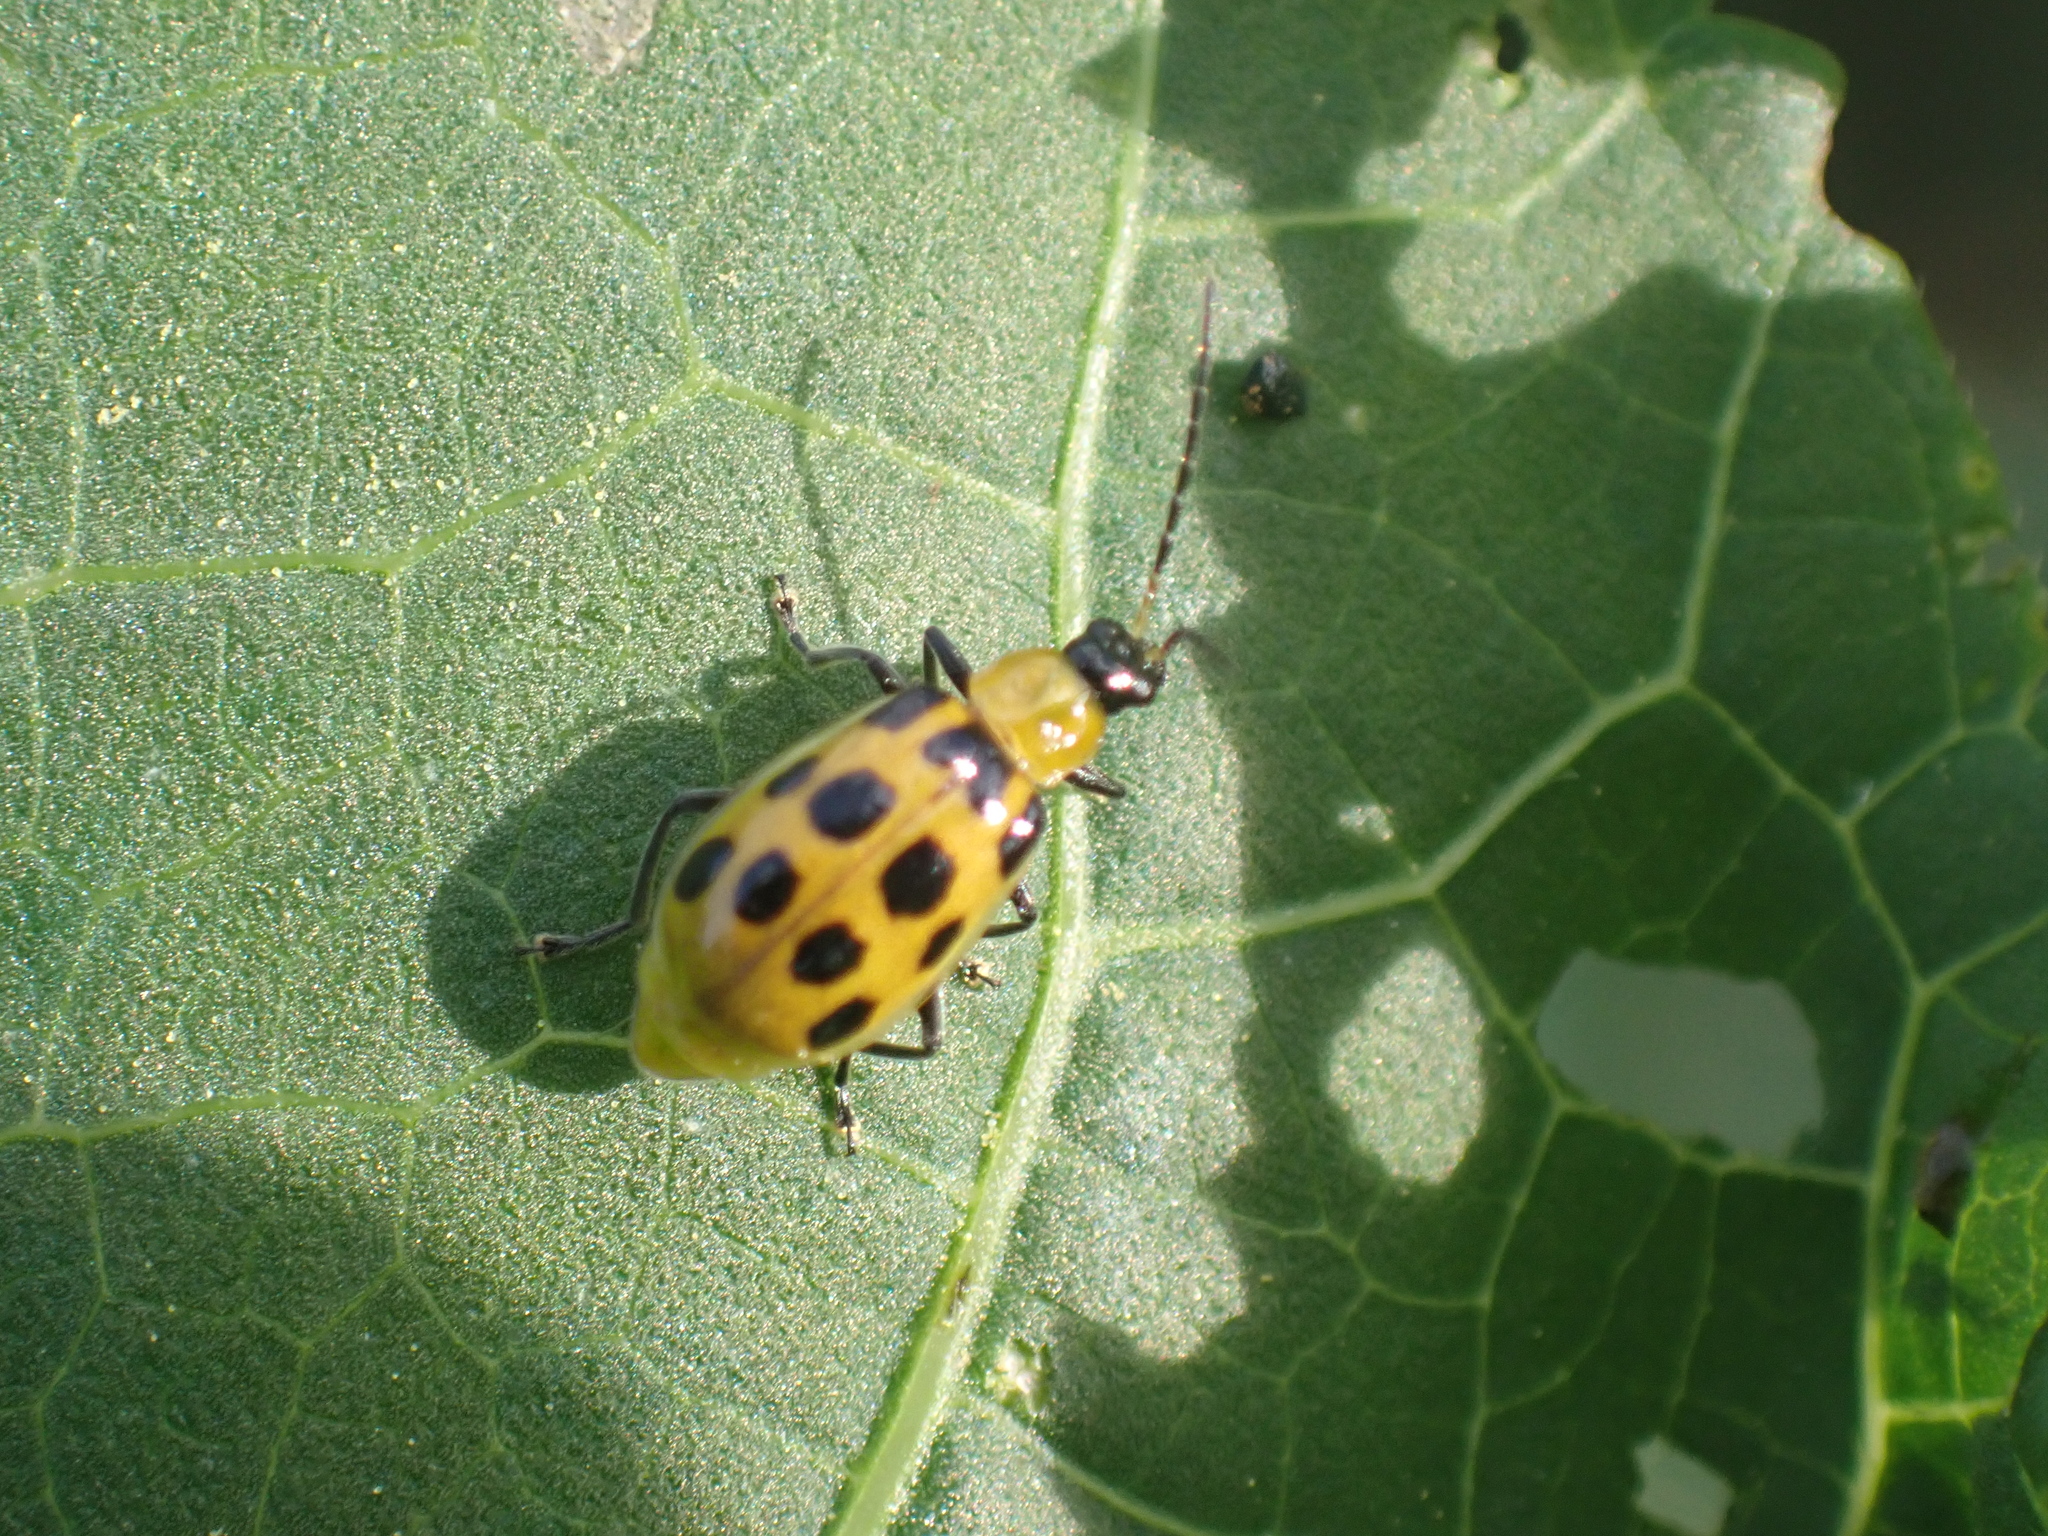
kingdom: Animalia
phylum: Arthropoda
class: Insecta
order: Coleoptera
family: Chrysomelidae
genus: Diabrotica
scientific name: Diabrotica undecimpunctata
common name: Spotted cucumber beetle
